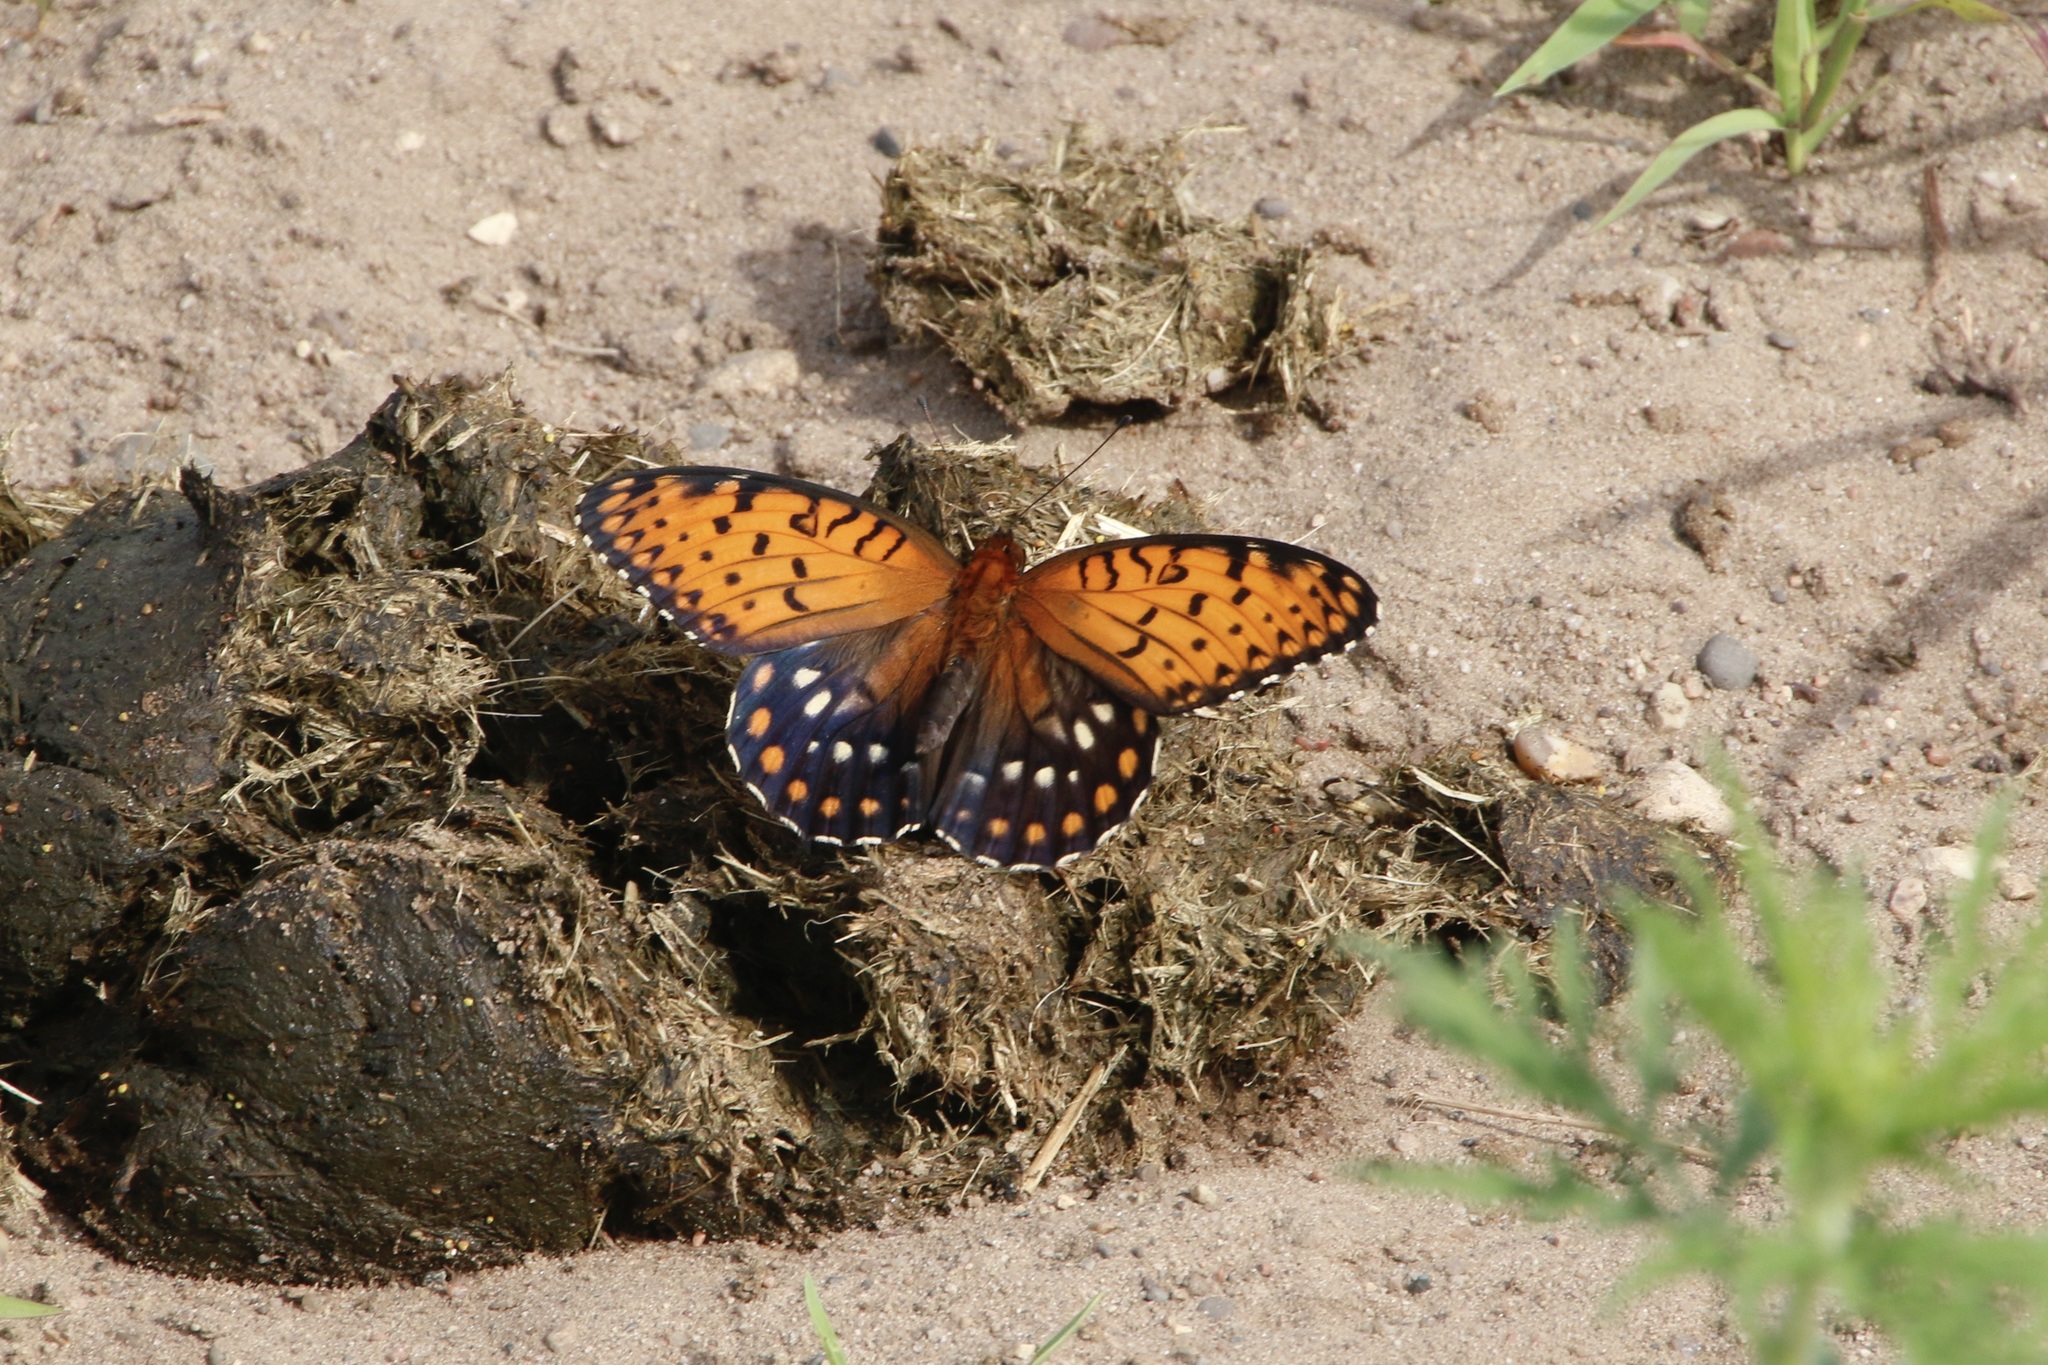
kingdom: Animalia
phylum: Arthropoda
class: Insecta
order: Lepidoptera
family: Nymphalidae
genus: Speyeria
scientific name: Speyeria idalia
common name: Regal fritillary
